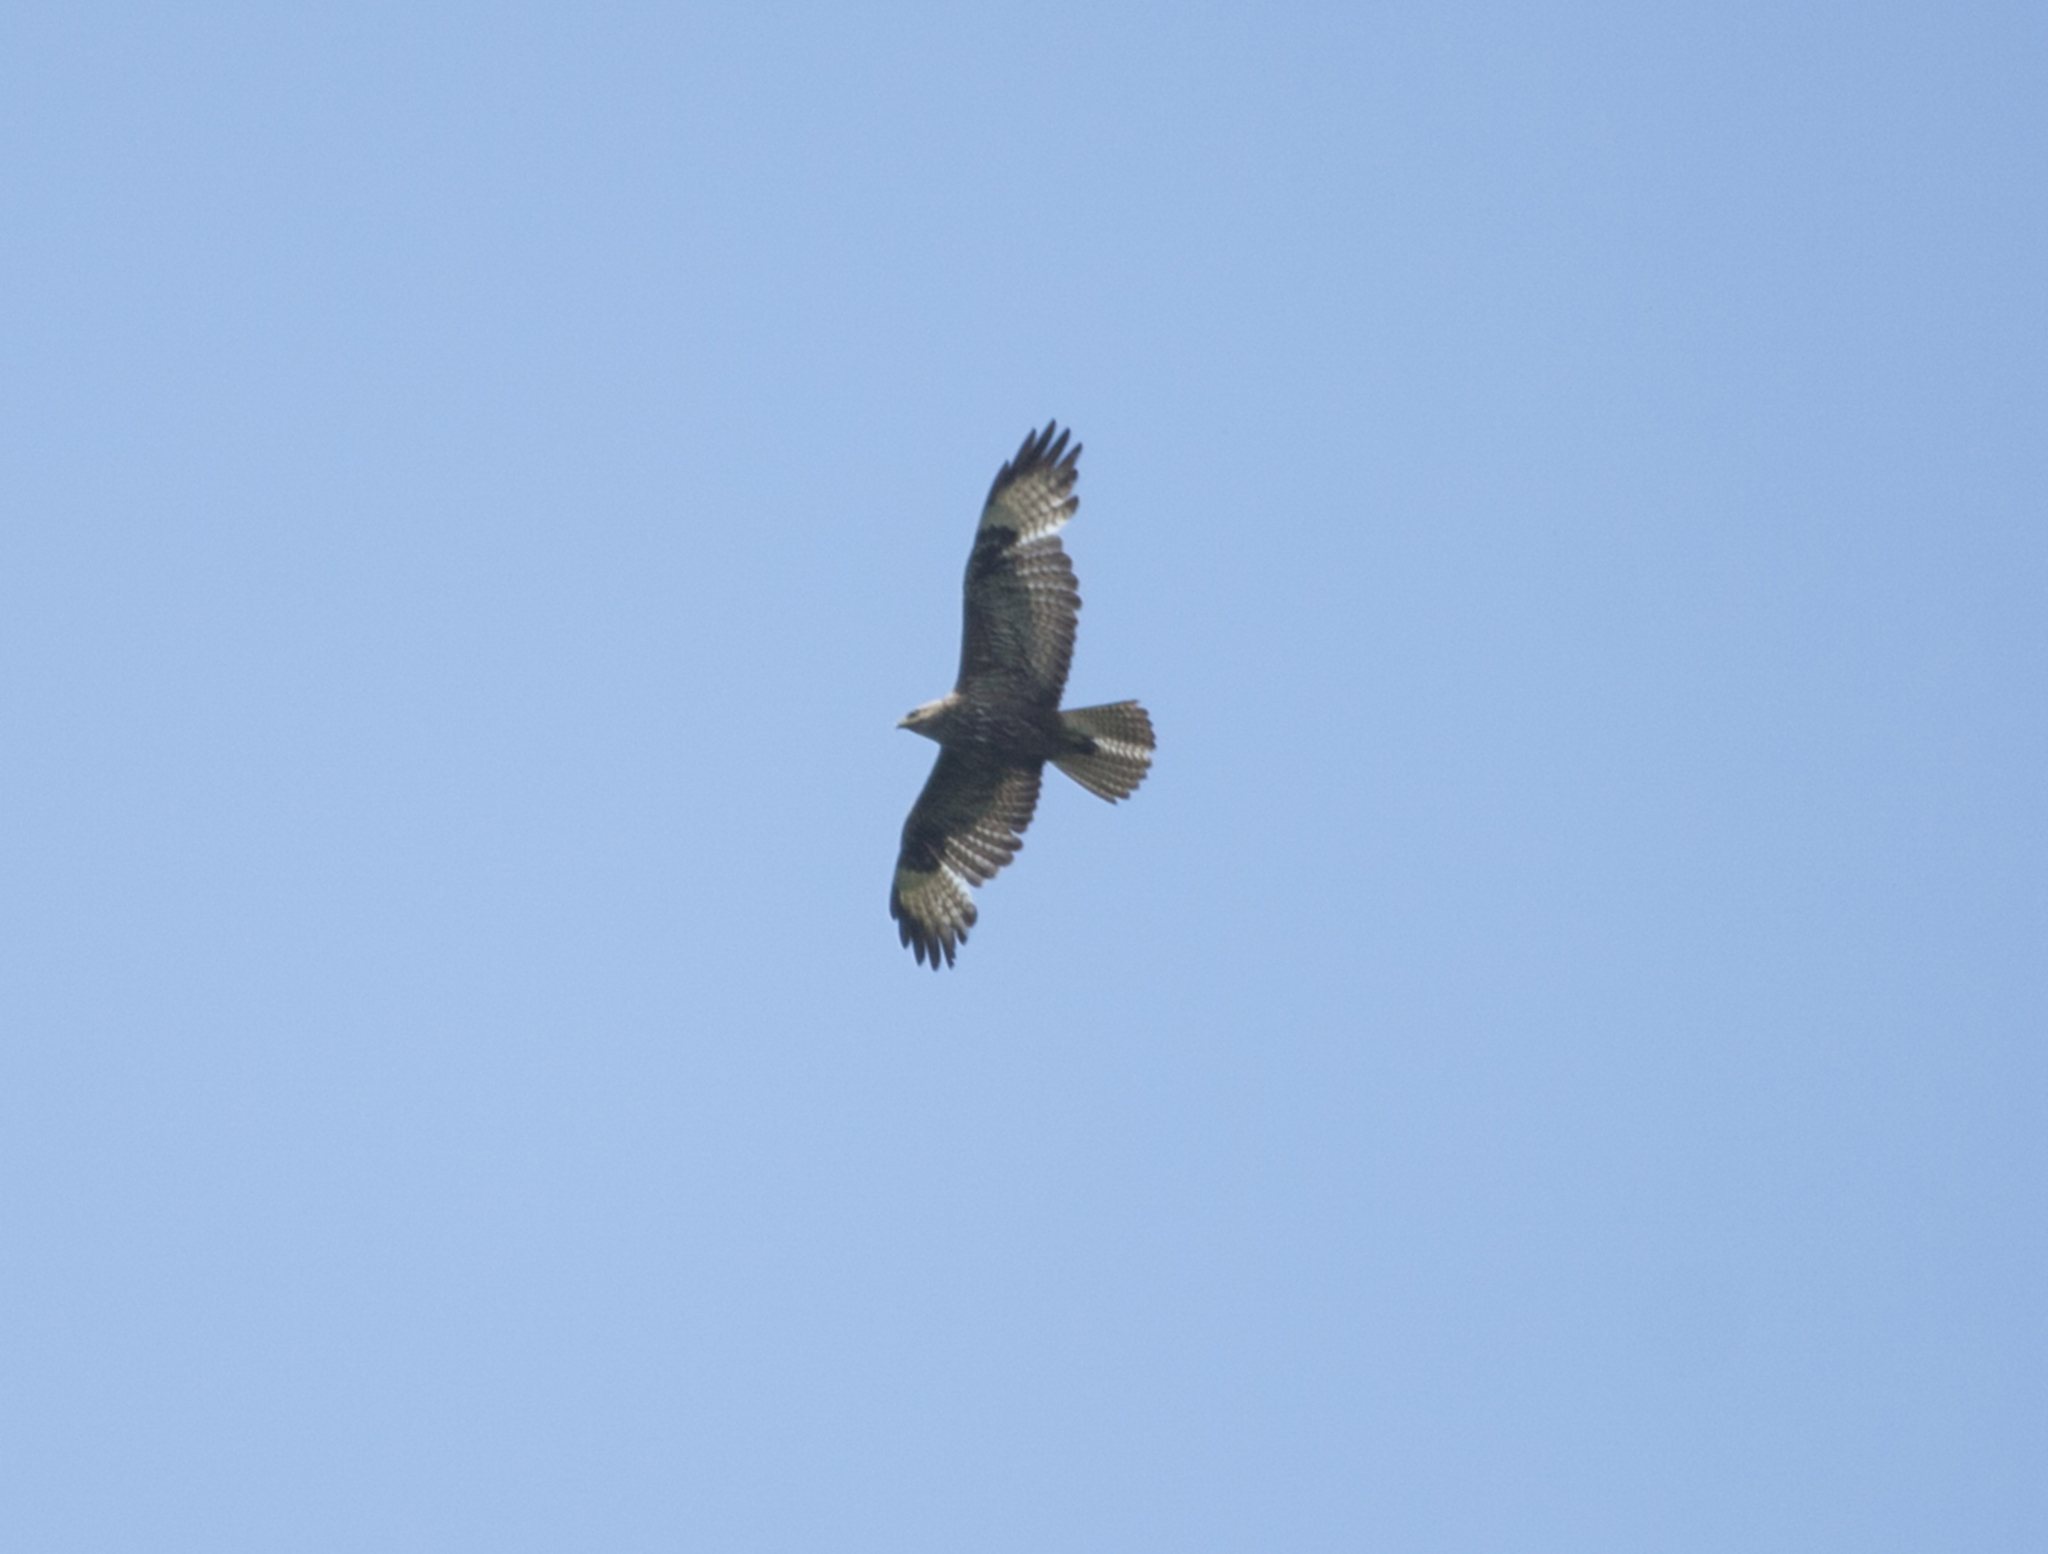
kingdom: Animalia
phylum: Chordata
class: Aves
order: Accipitriformes
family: Accipitridae
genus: Buteo
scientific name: Buteo buteo
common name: Common buzzard
